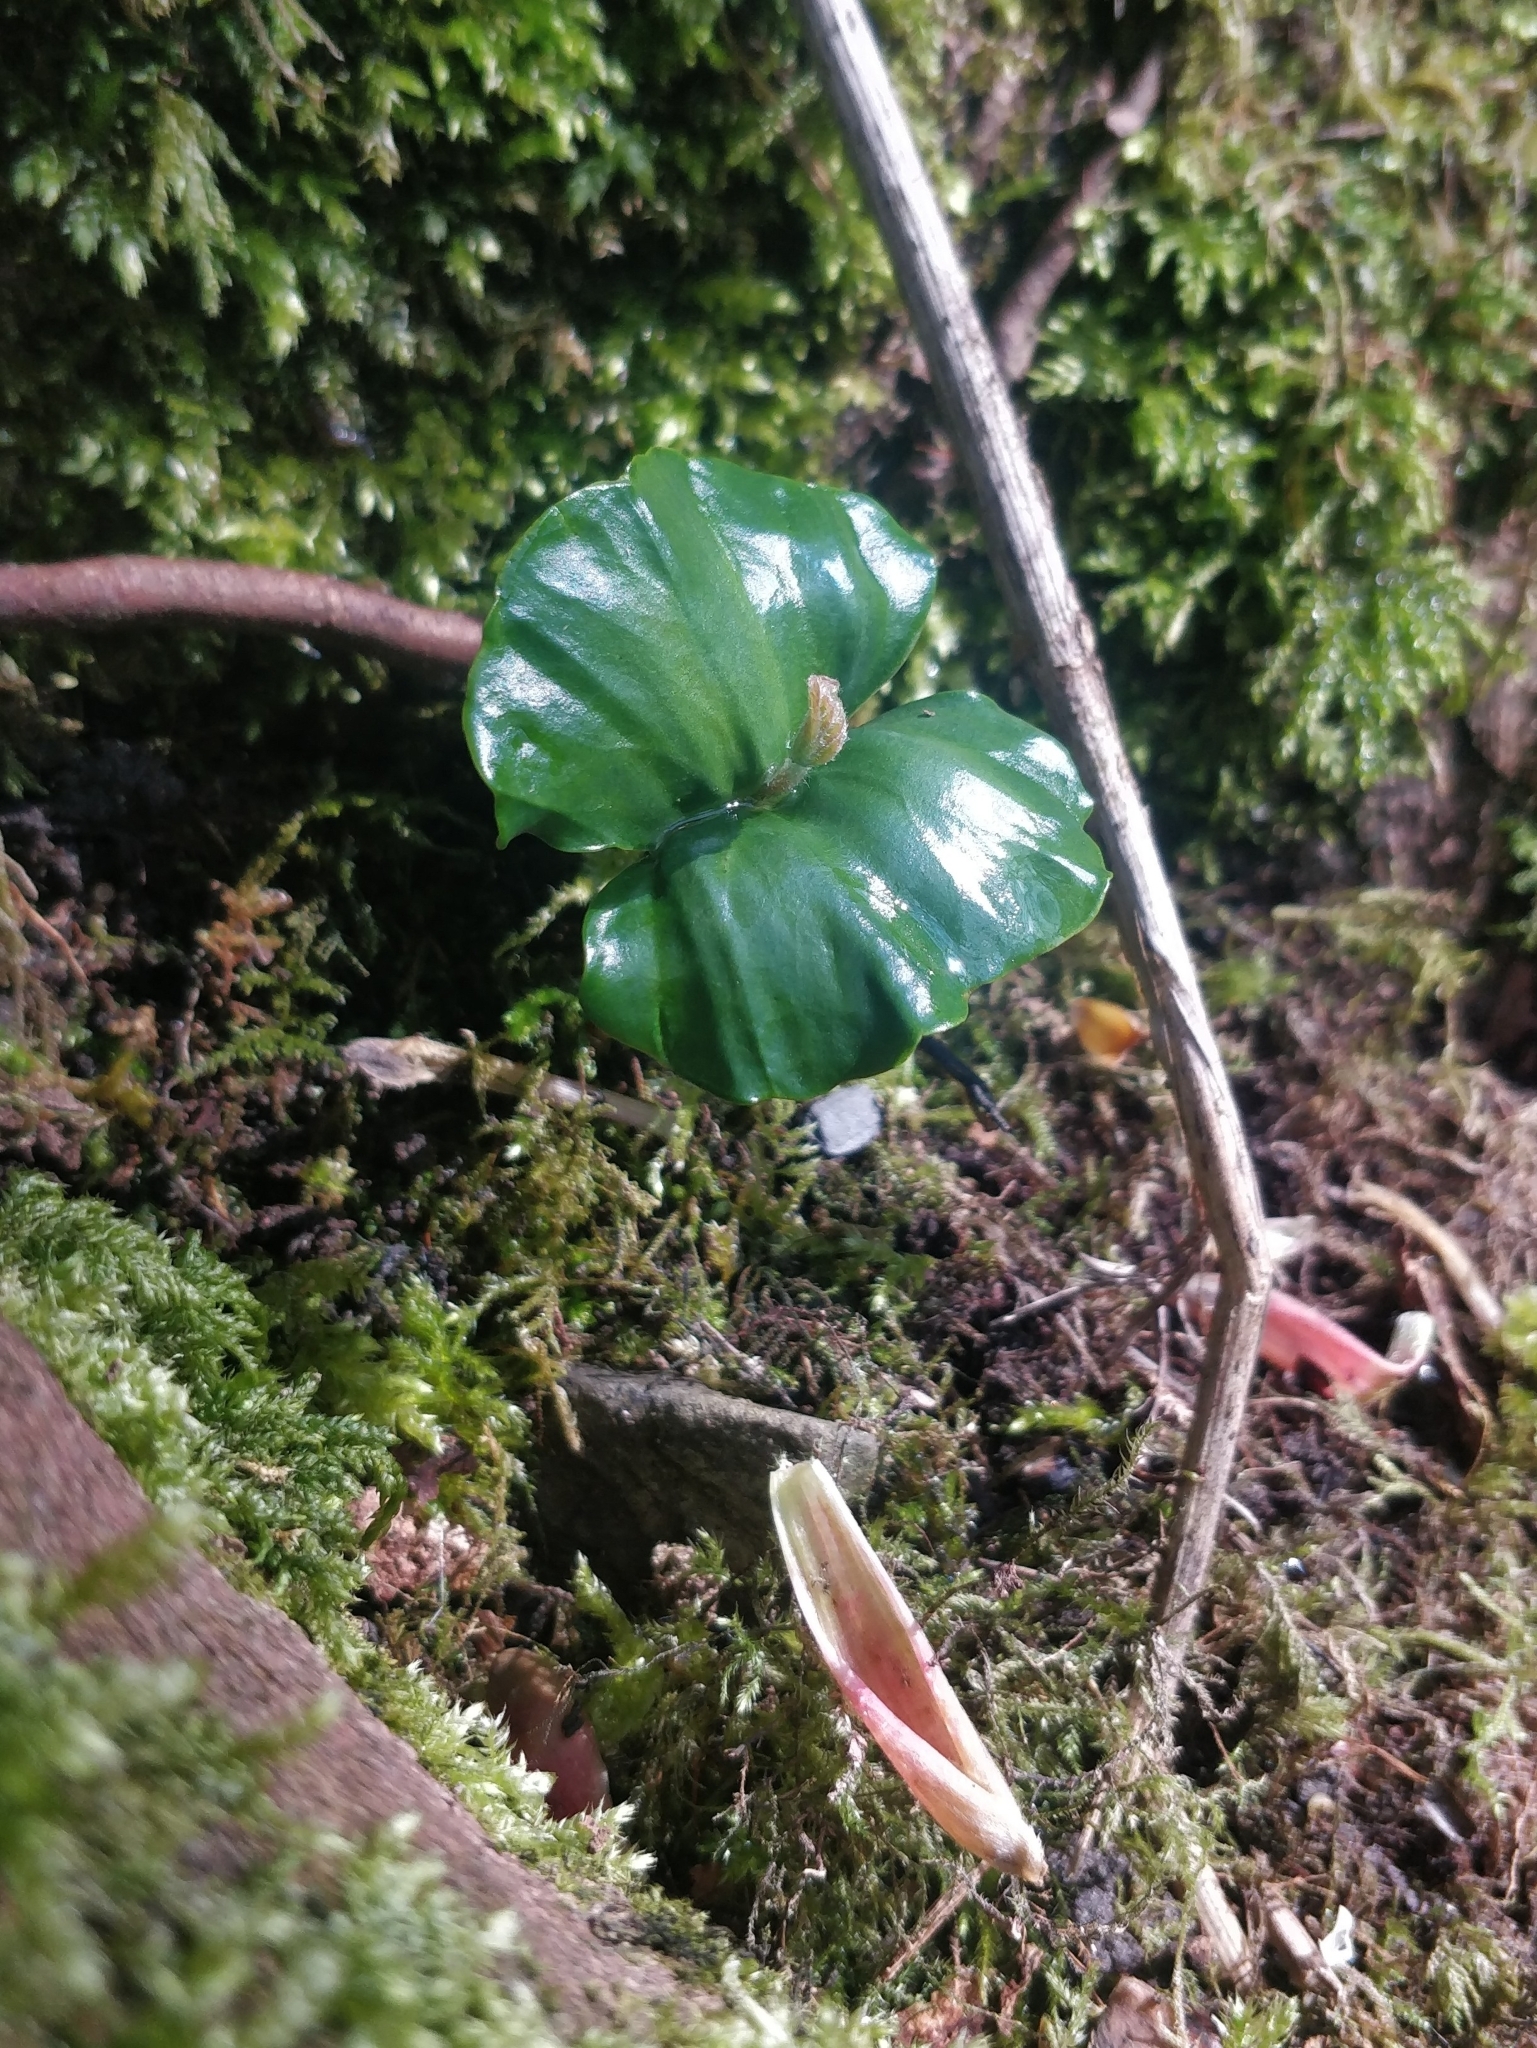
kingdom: Plantae
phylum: Tracheophyta
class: Magnoliopsida
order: Fagales
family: Fagaceae
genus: Fagus
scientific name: Fagus sylvatica
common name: Beech
